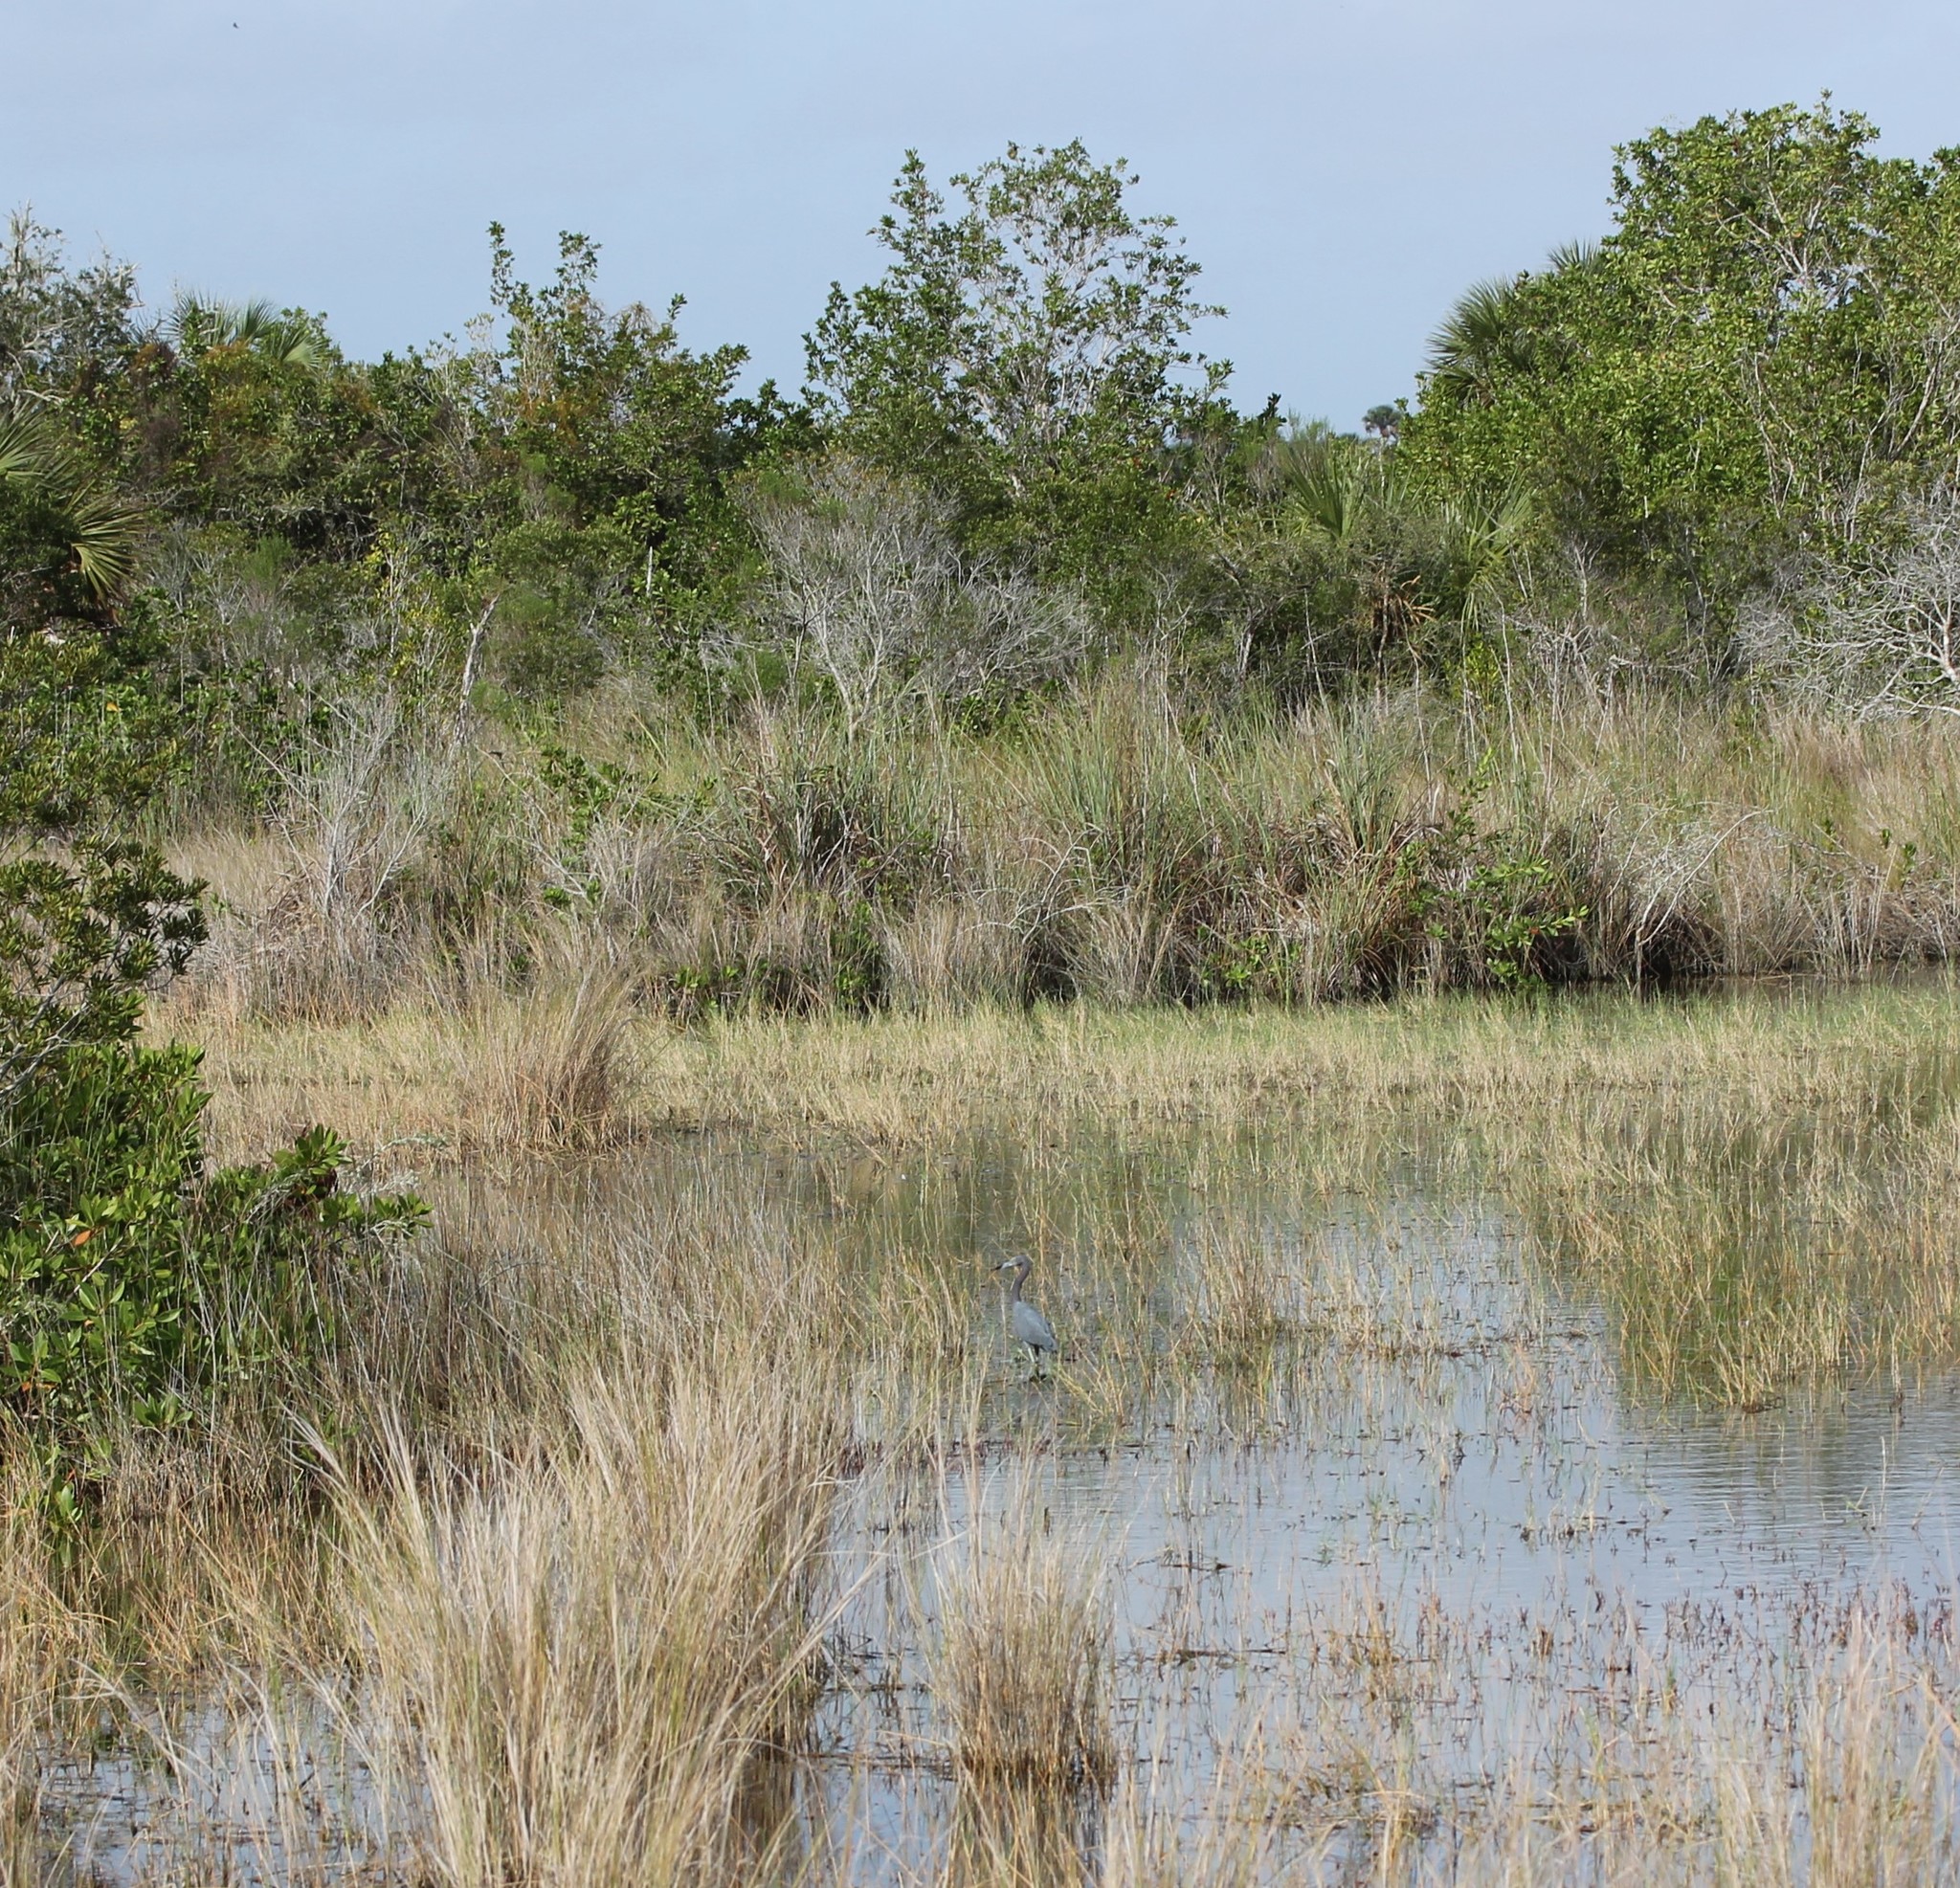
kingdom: Animalia
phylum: Chordata
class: Aves
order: Pelecaniformes
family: Ardeidae
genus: Egretta
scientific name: Egretta caerulea
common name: Little blue heron
